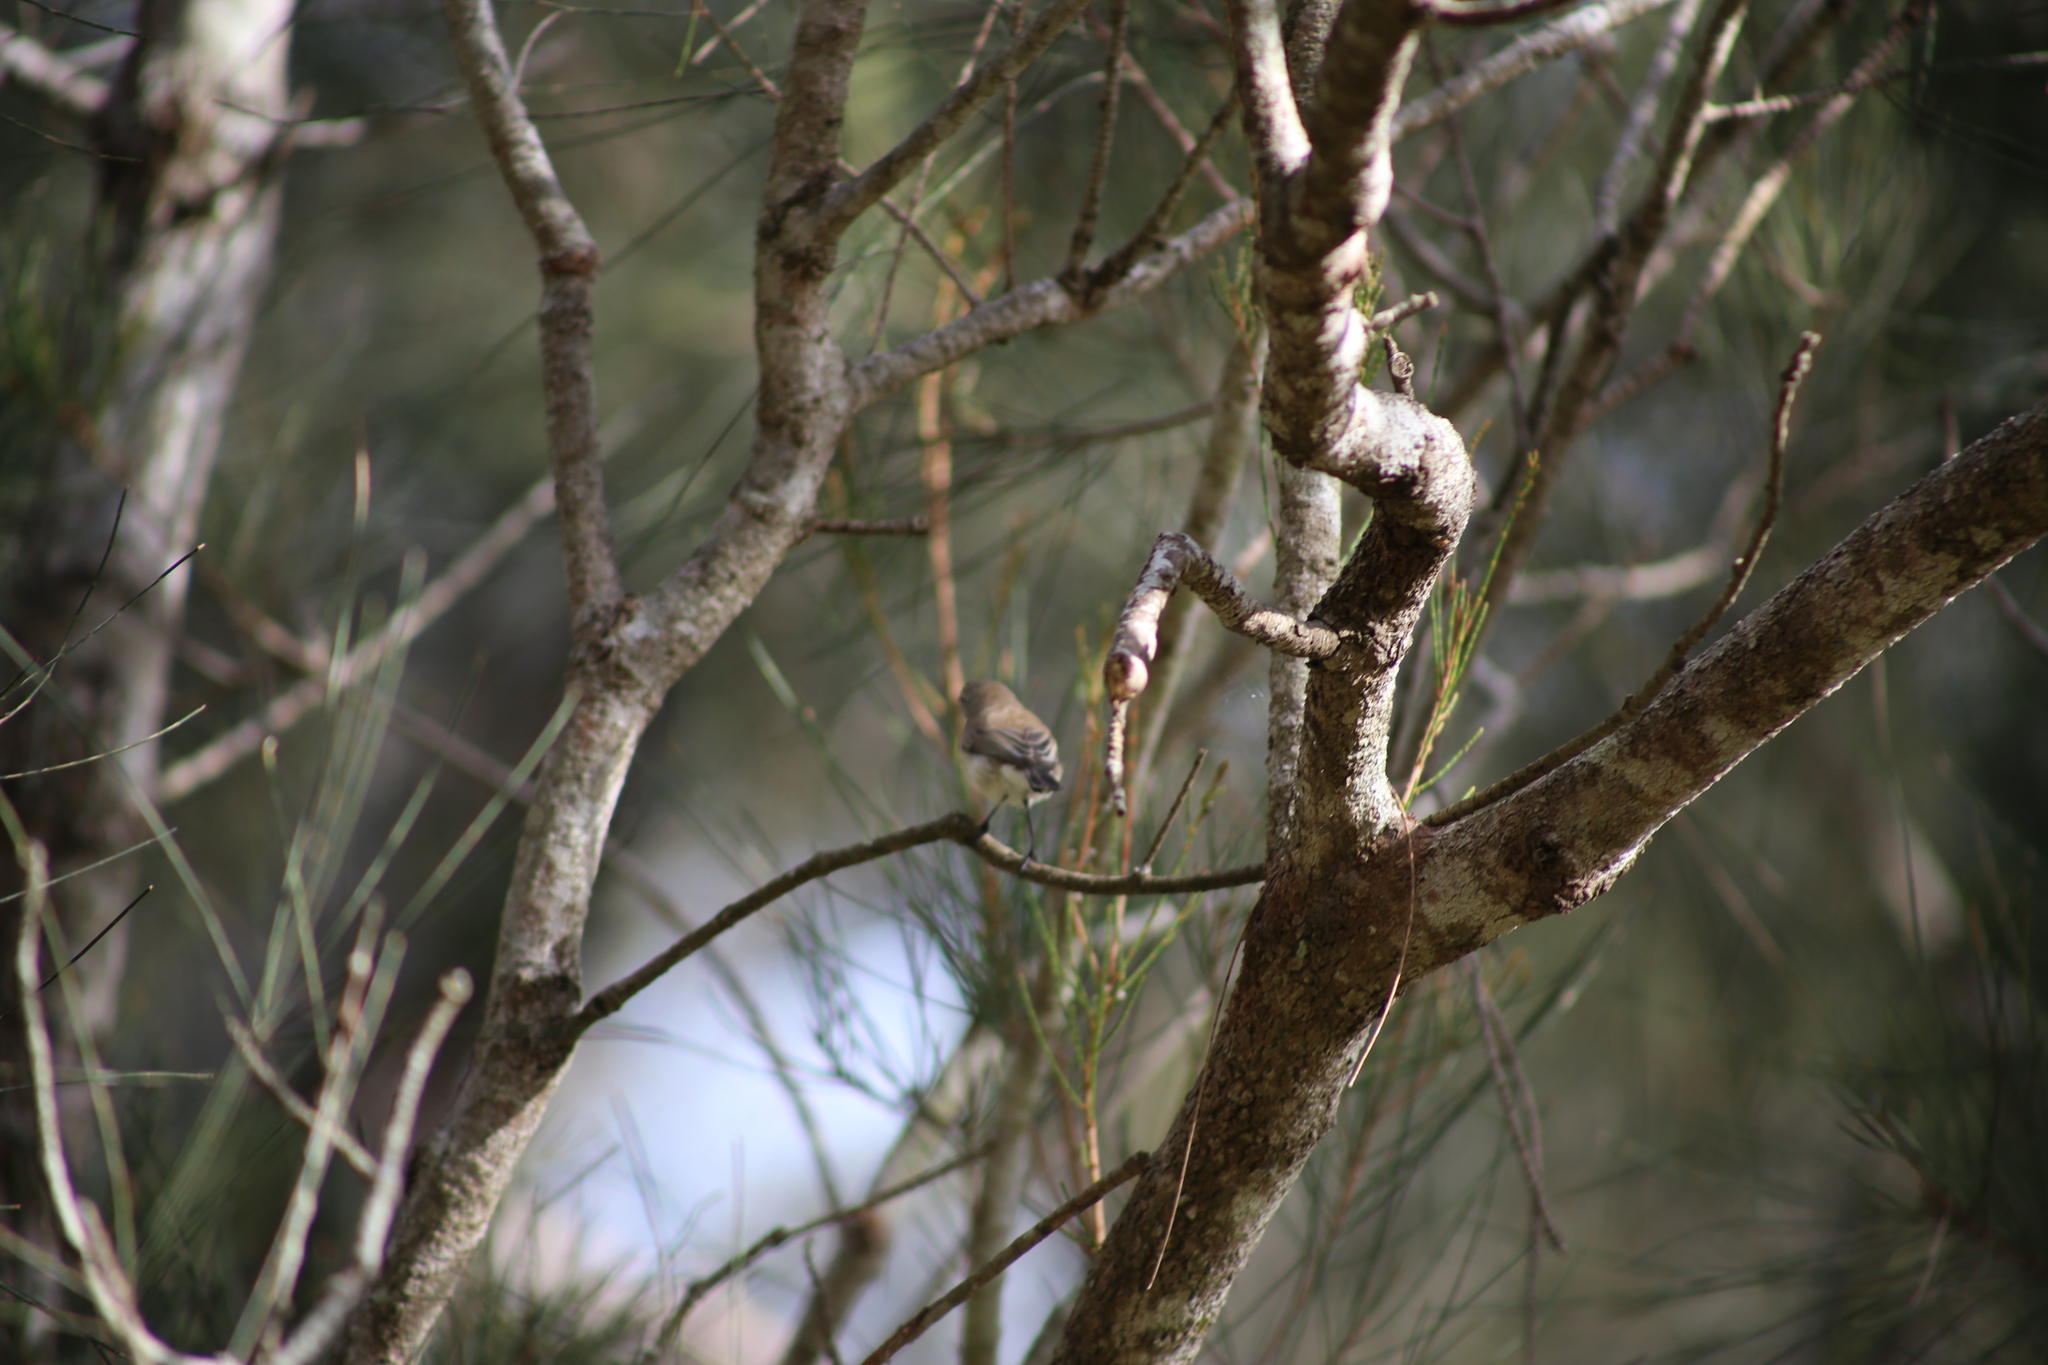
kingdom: Animalia
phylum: Chordata
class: Aves
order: Passeriformes
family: Acanthizidae
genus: Gerygone
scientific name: Gerygone levigaster
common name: Mangrove gerygone
